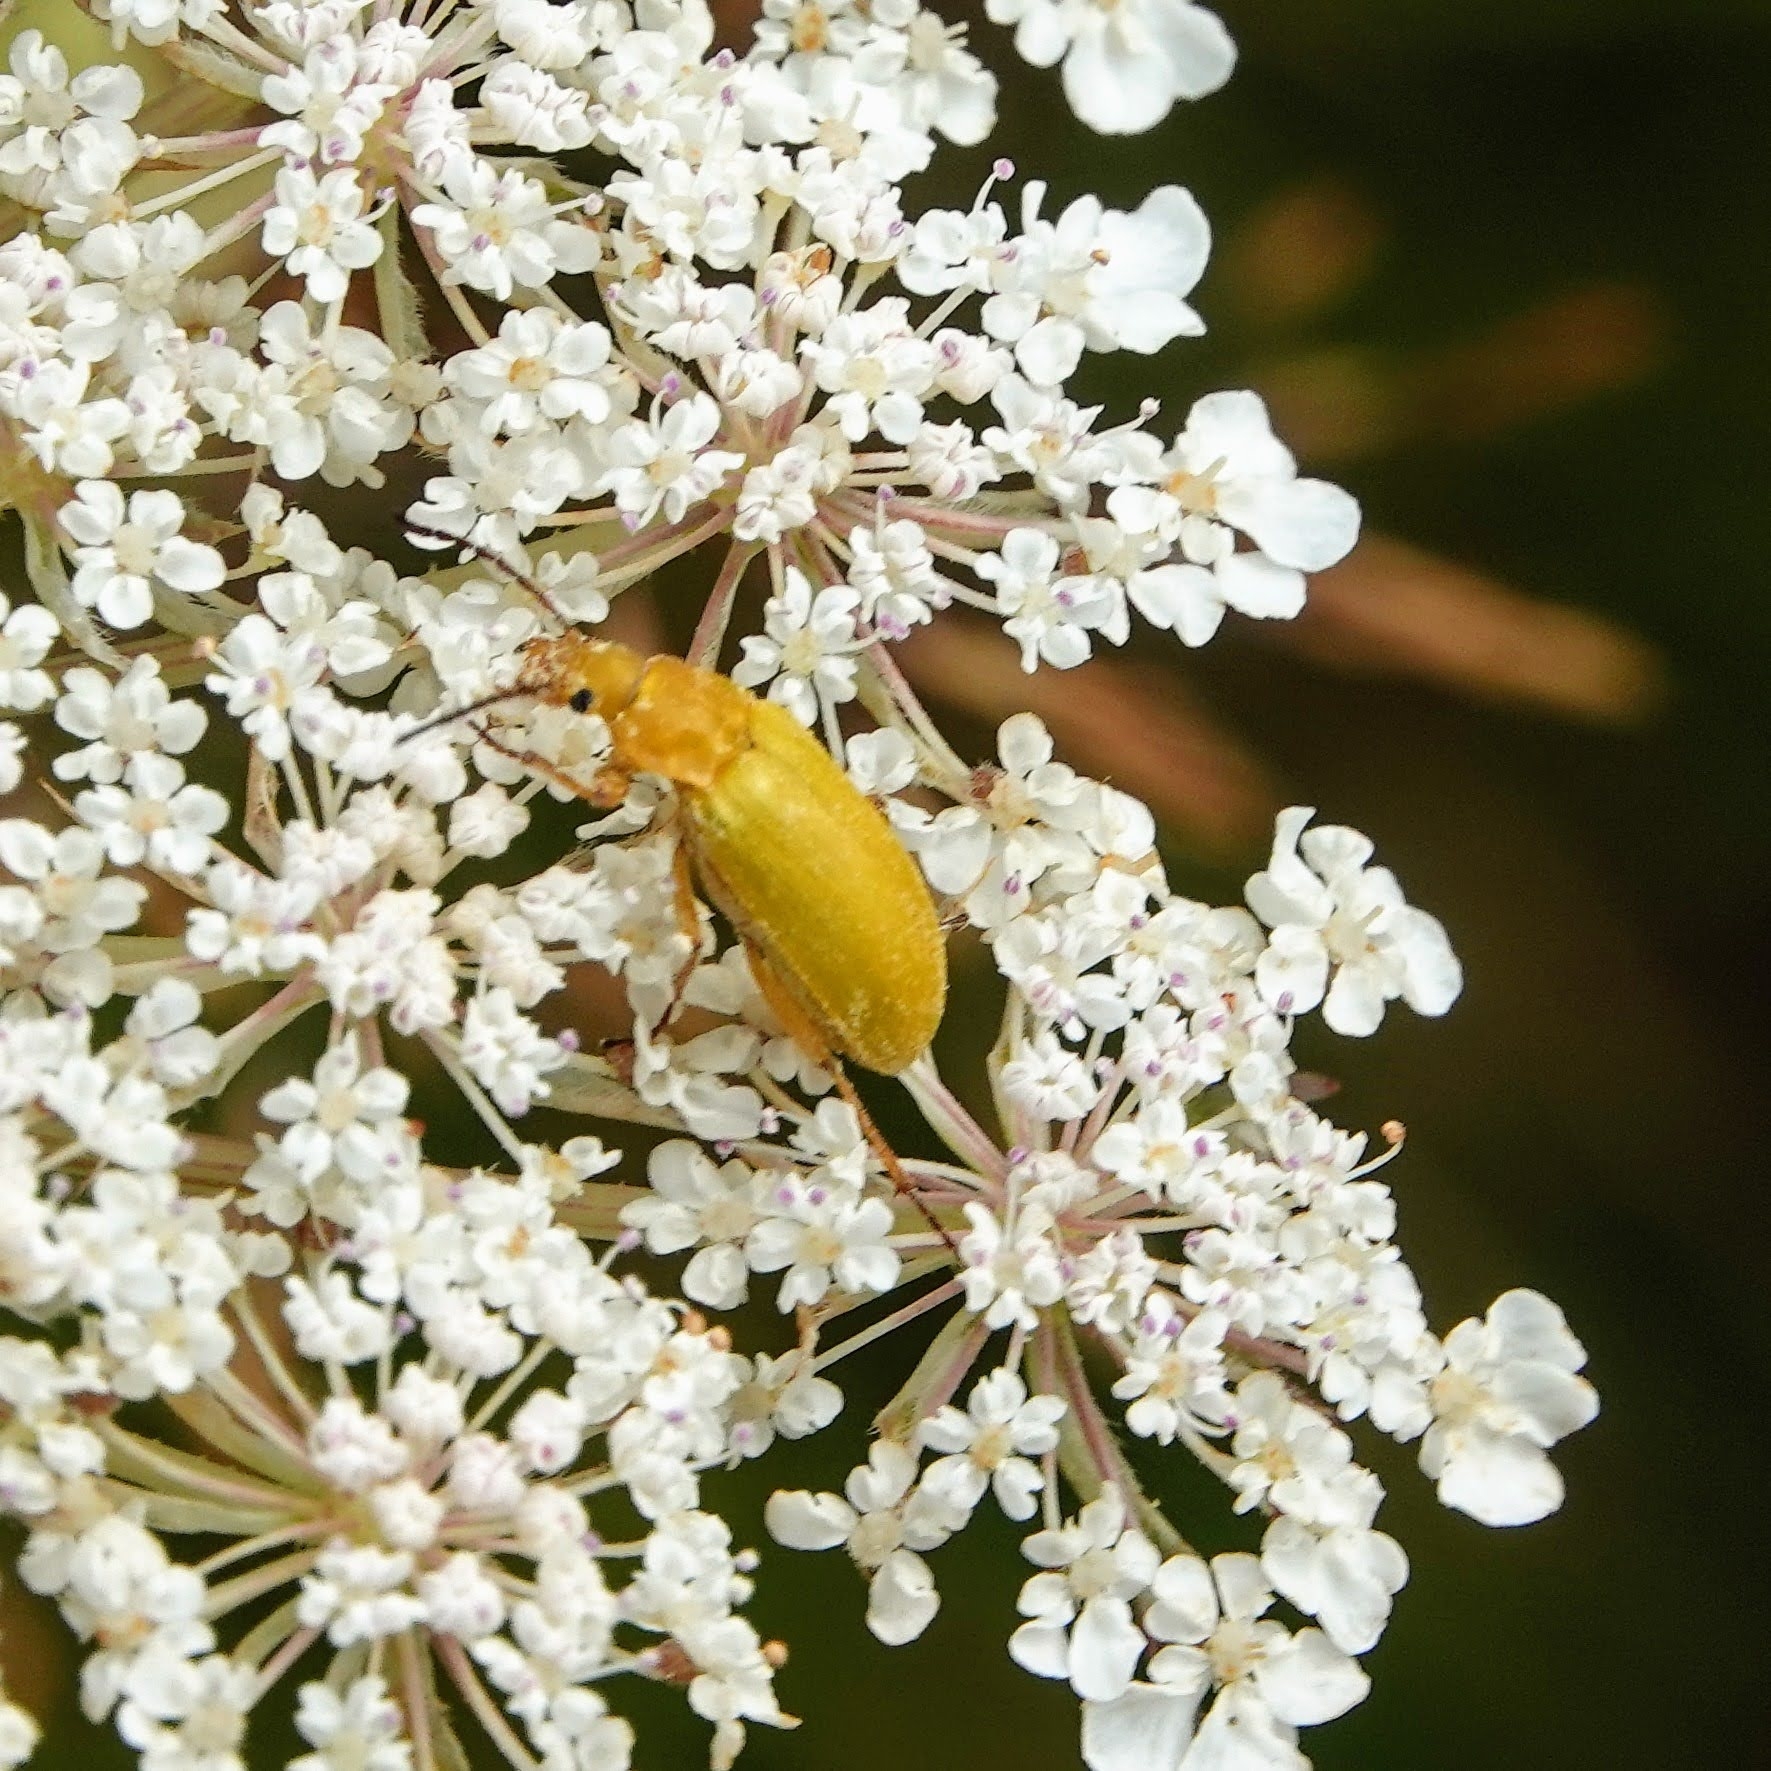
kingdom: Animalia
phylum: Arthropoda
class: Insecta
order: Coleoptera
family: Tenebrionidae
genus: Cteniopus
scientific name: Cteniopus sulphureus
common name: Sulphur beetle
